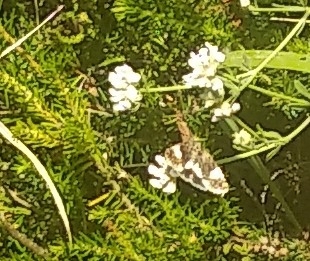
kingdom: Animalia
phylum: Arthropoda
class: Insecta
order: Lepidoptera
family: Erebidae
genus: Tyta
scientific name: Tyta luctuosa
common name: Four-spotted
